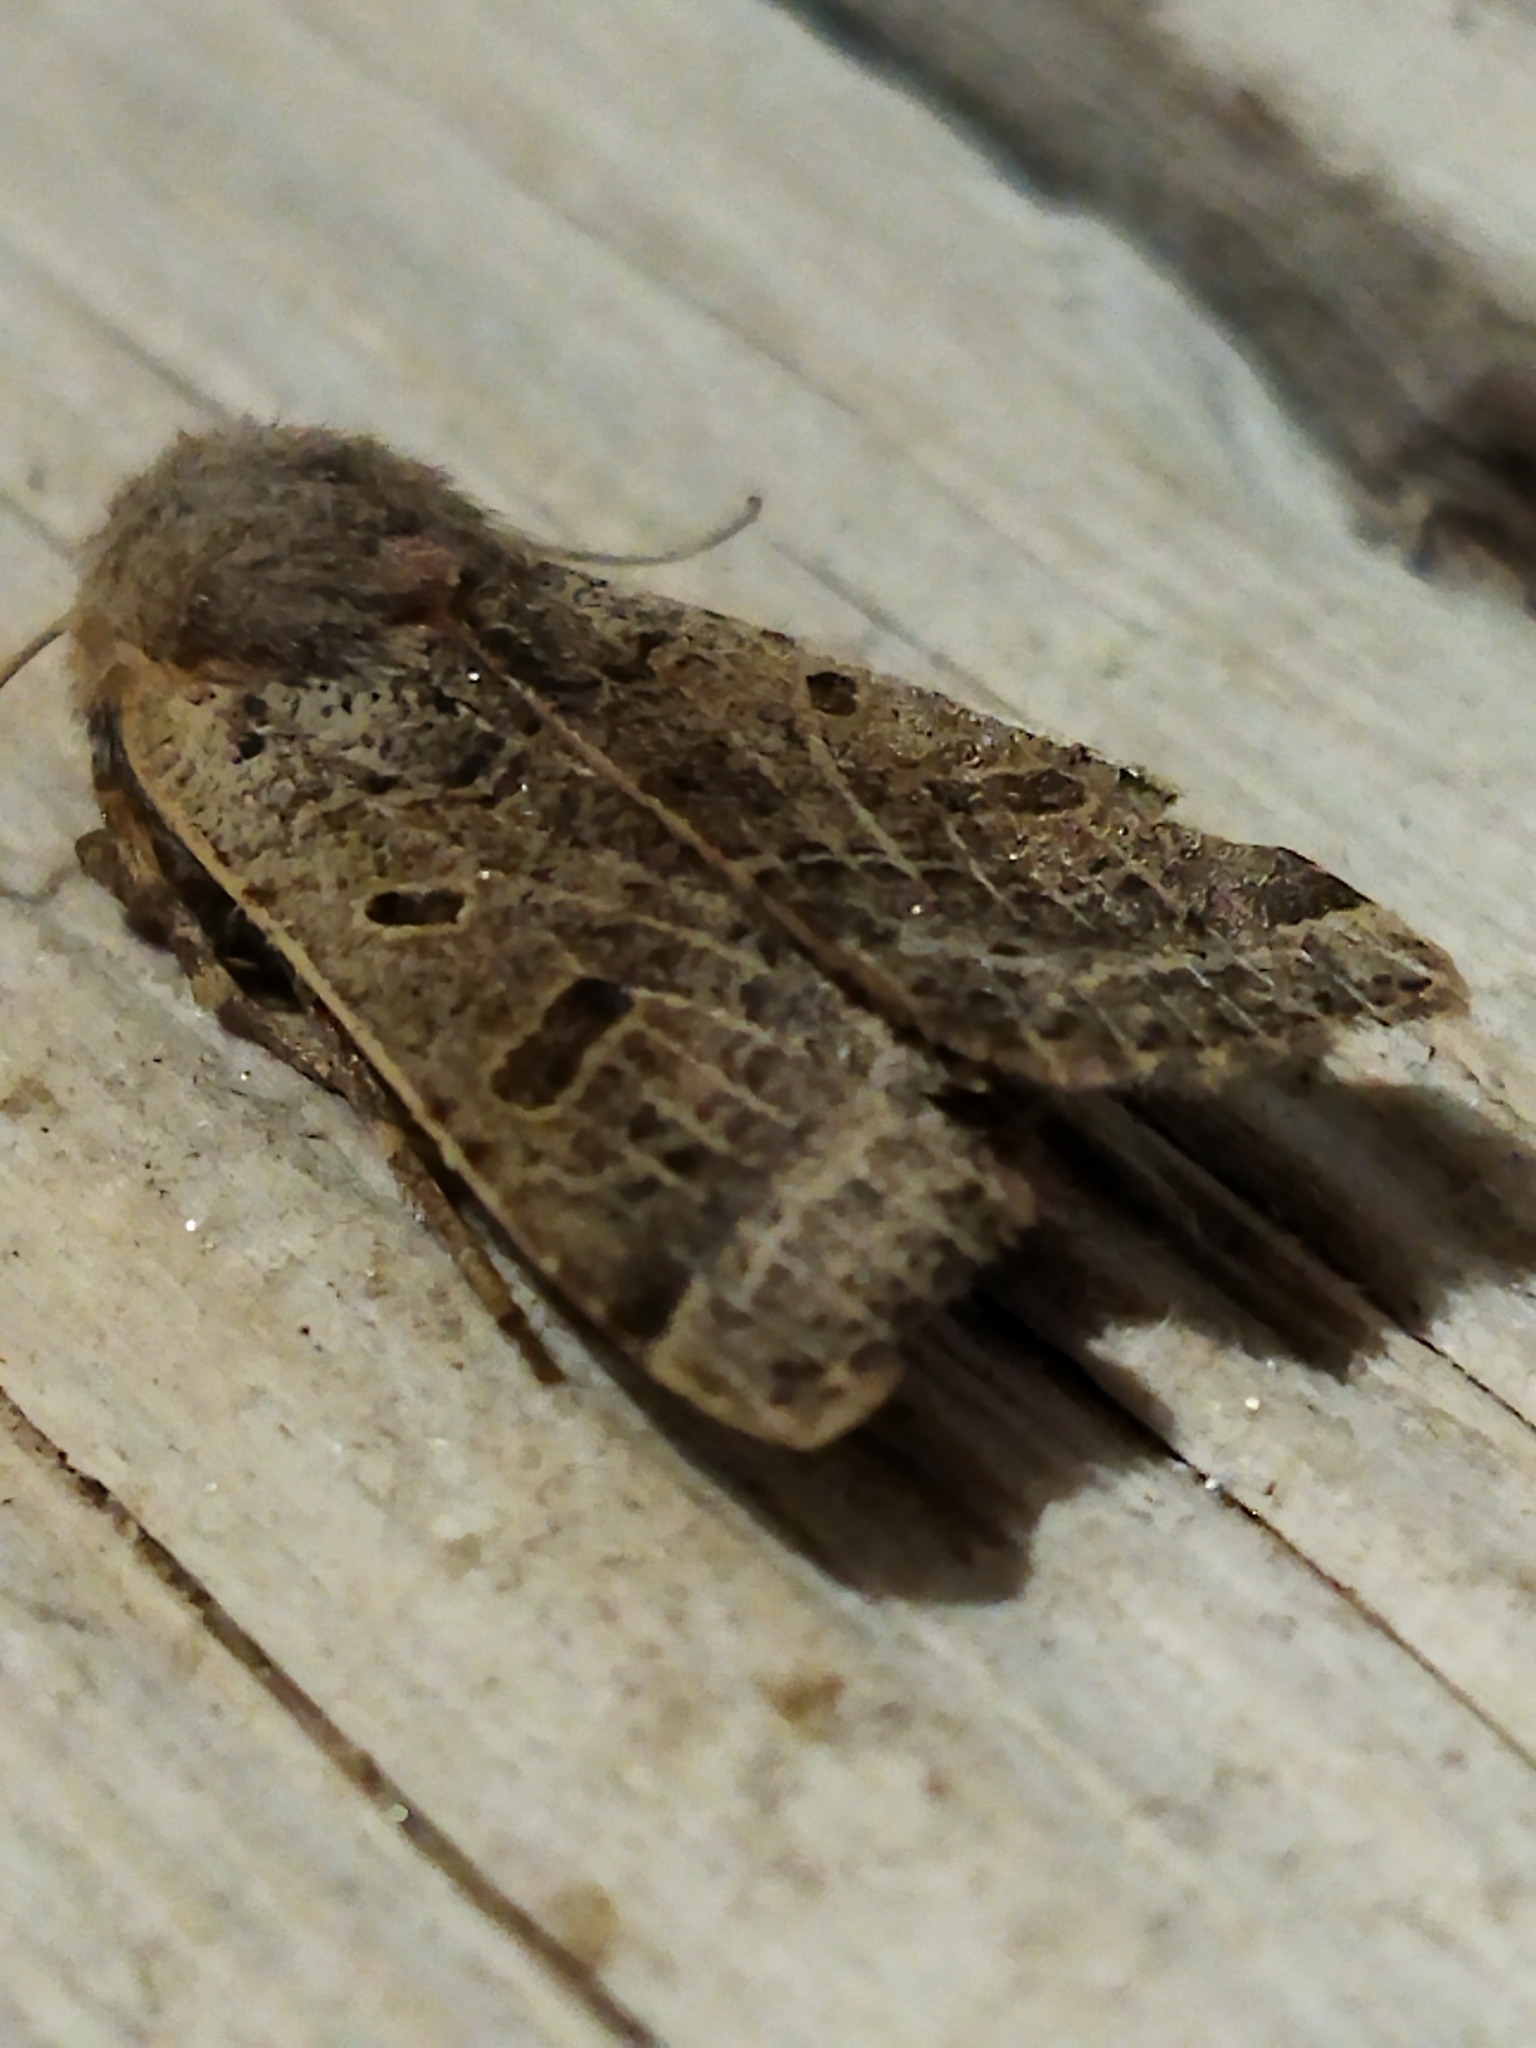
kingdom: Animalia
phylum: Arthropoda
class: Insecta
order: Lepidoptera
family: Noctuidae
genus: Agrochola
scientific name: Agrochola lychnidis
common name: Beaded chestnut
